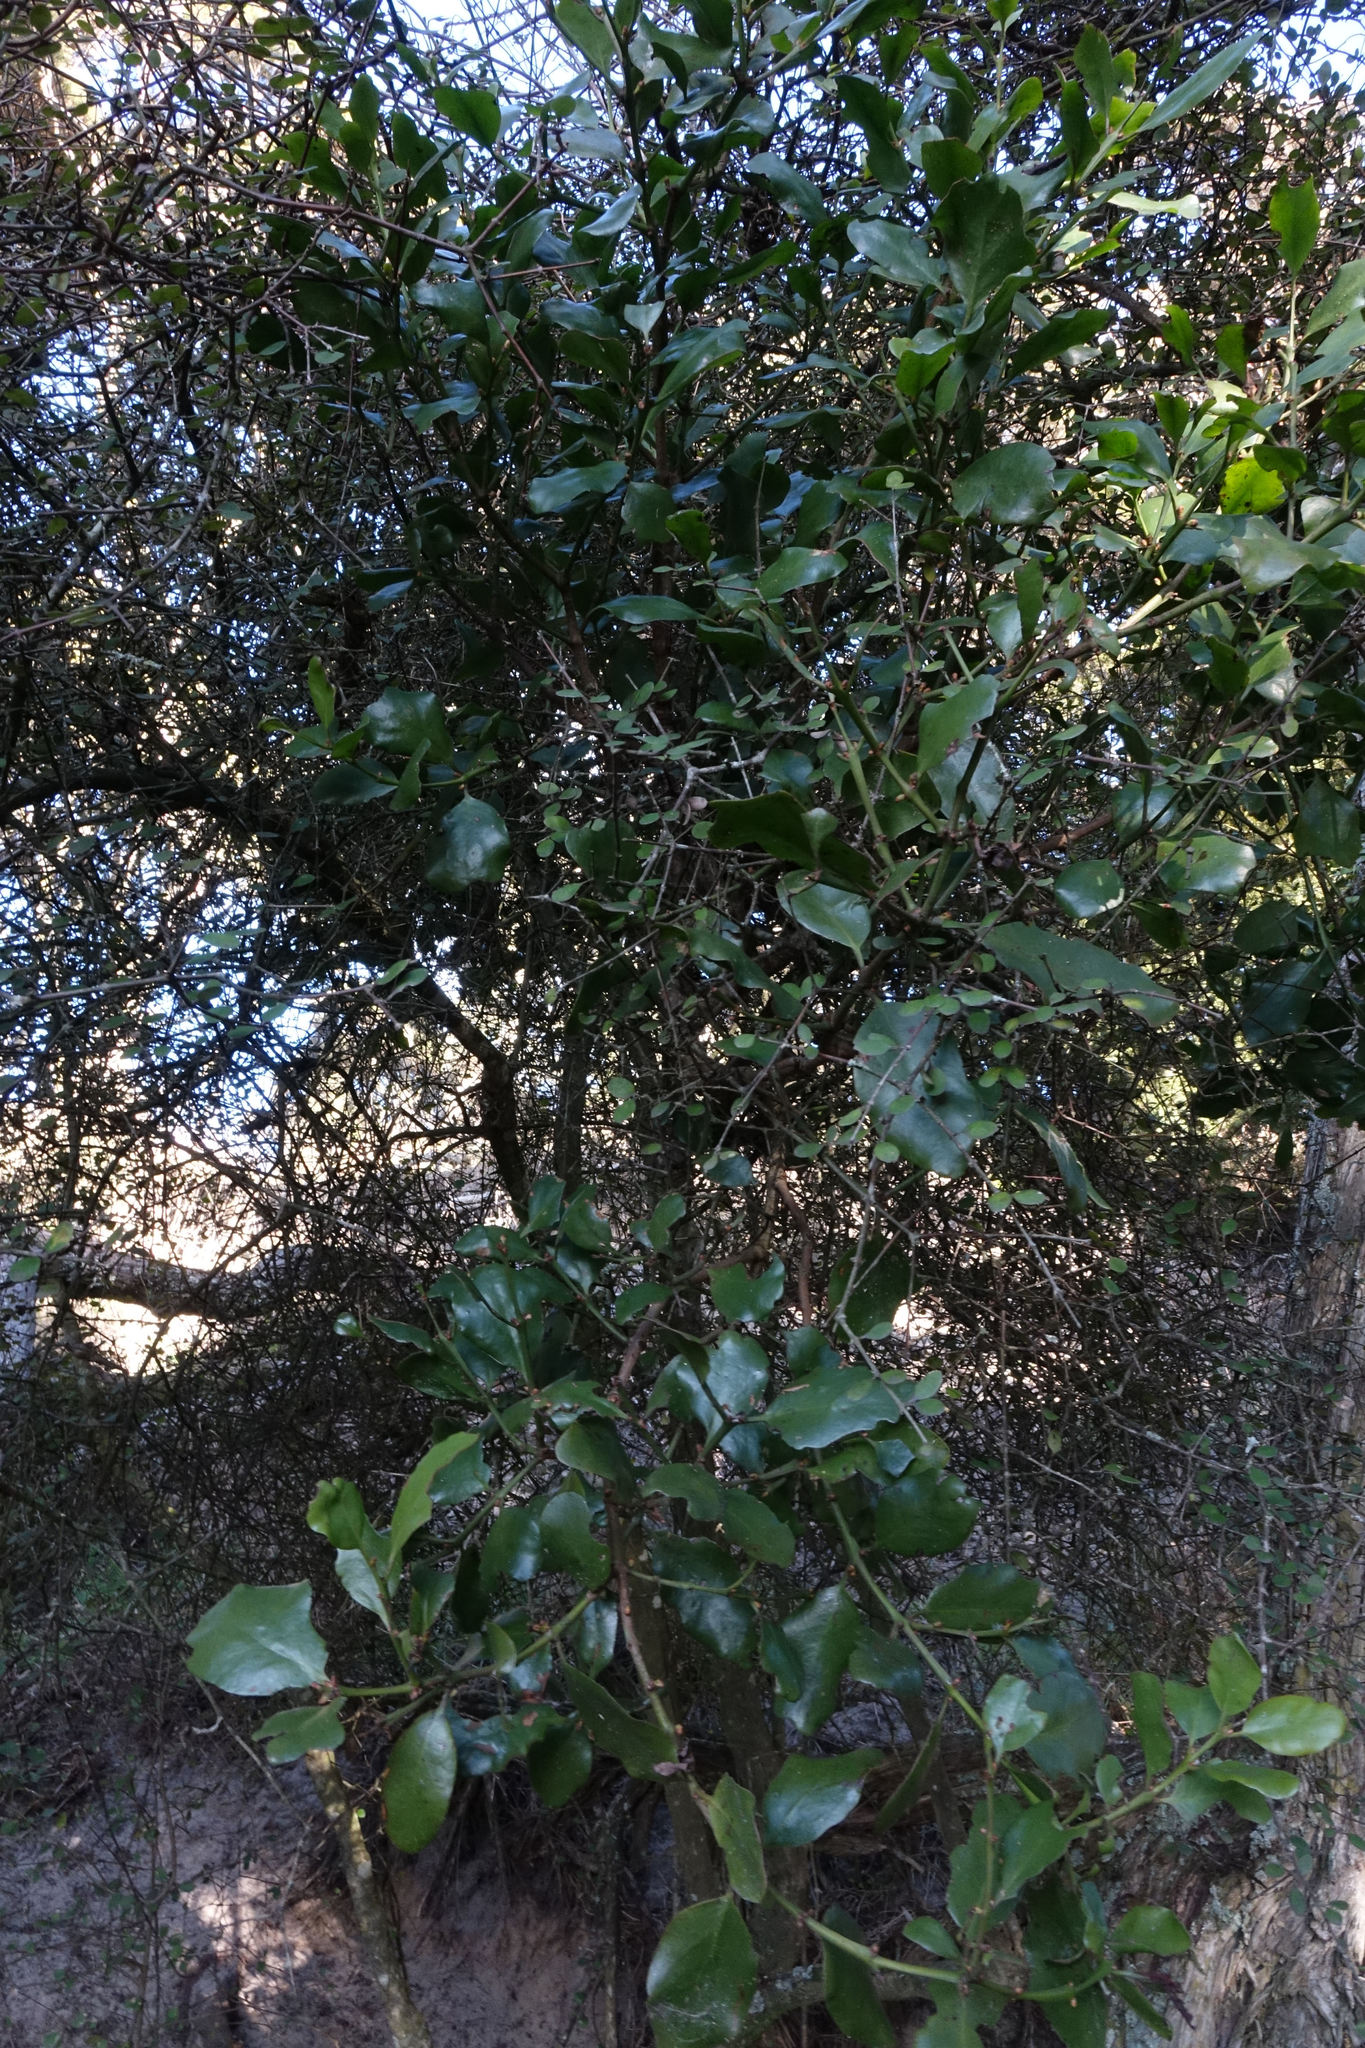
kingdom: Plantae
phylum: Tracheophyta
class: Magnoliopsida
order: Santalales
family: Loranthaceae
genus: Ileostylus
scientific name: Ileostylus micranthus
